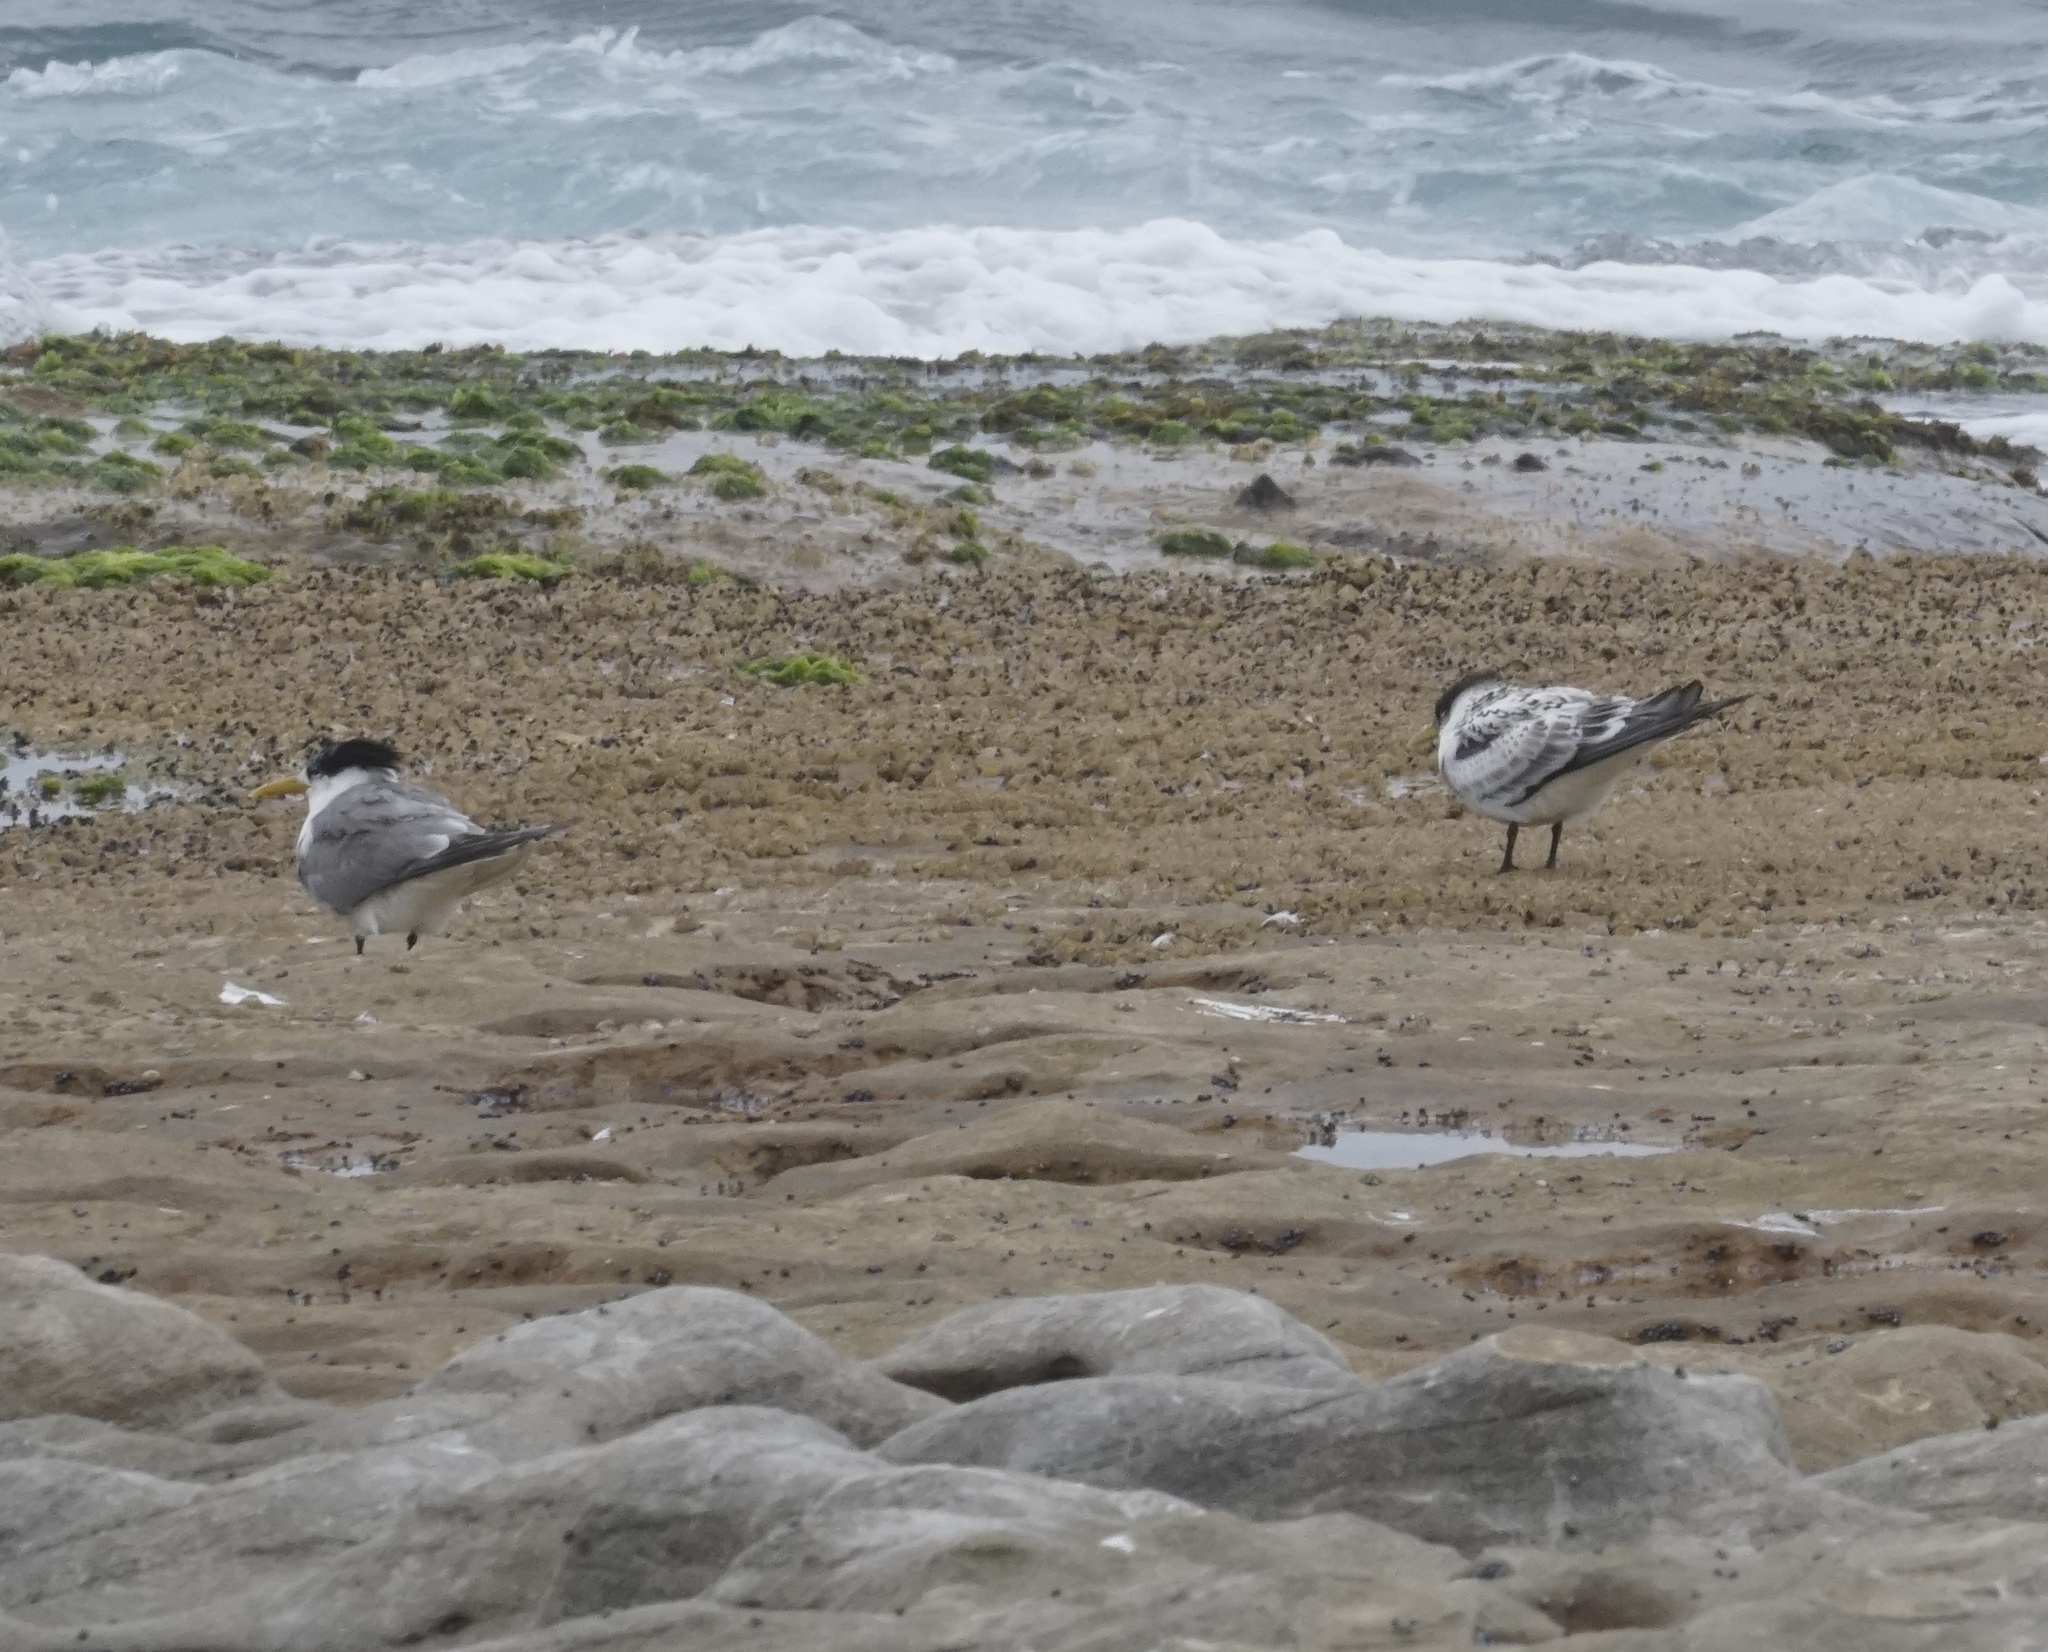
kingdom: Animalia
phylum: Chordata
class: Aves
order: Charadriiformes
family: Laridae
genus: Thalasseus
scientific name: Thalasseus bergii
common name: Greater crested tern
